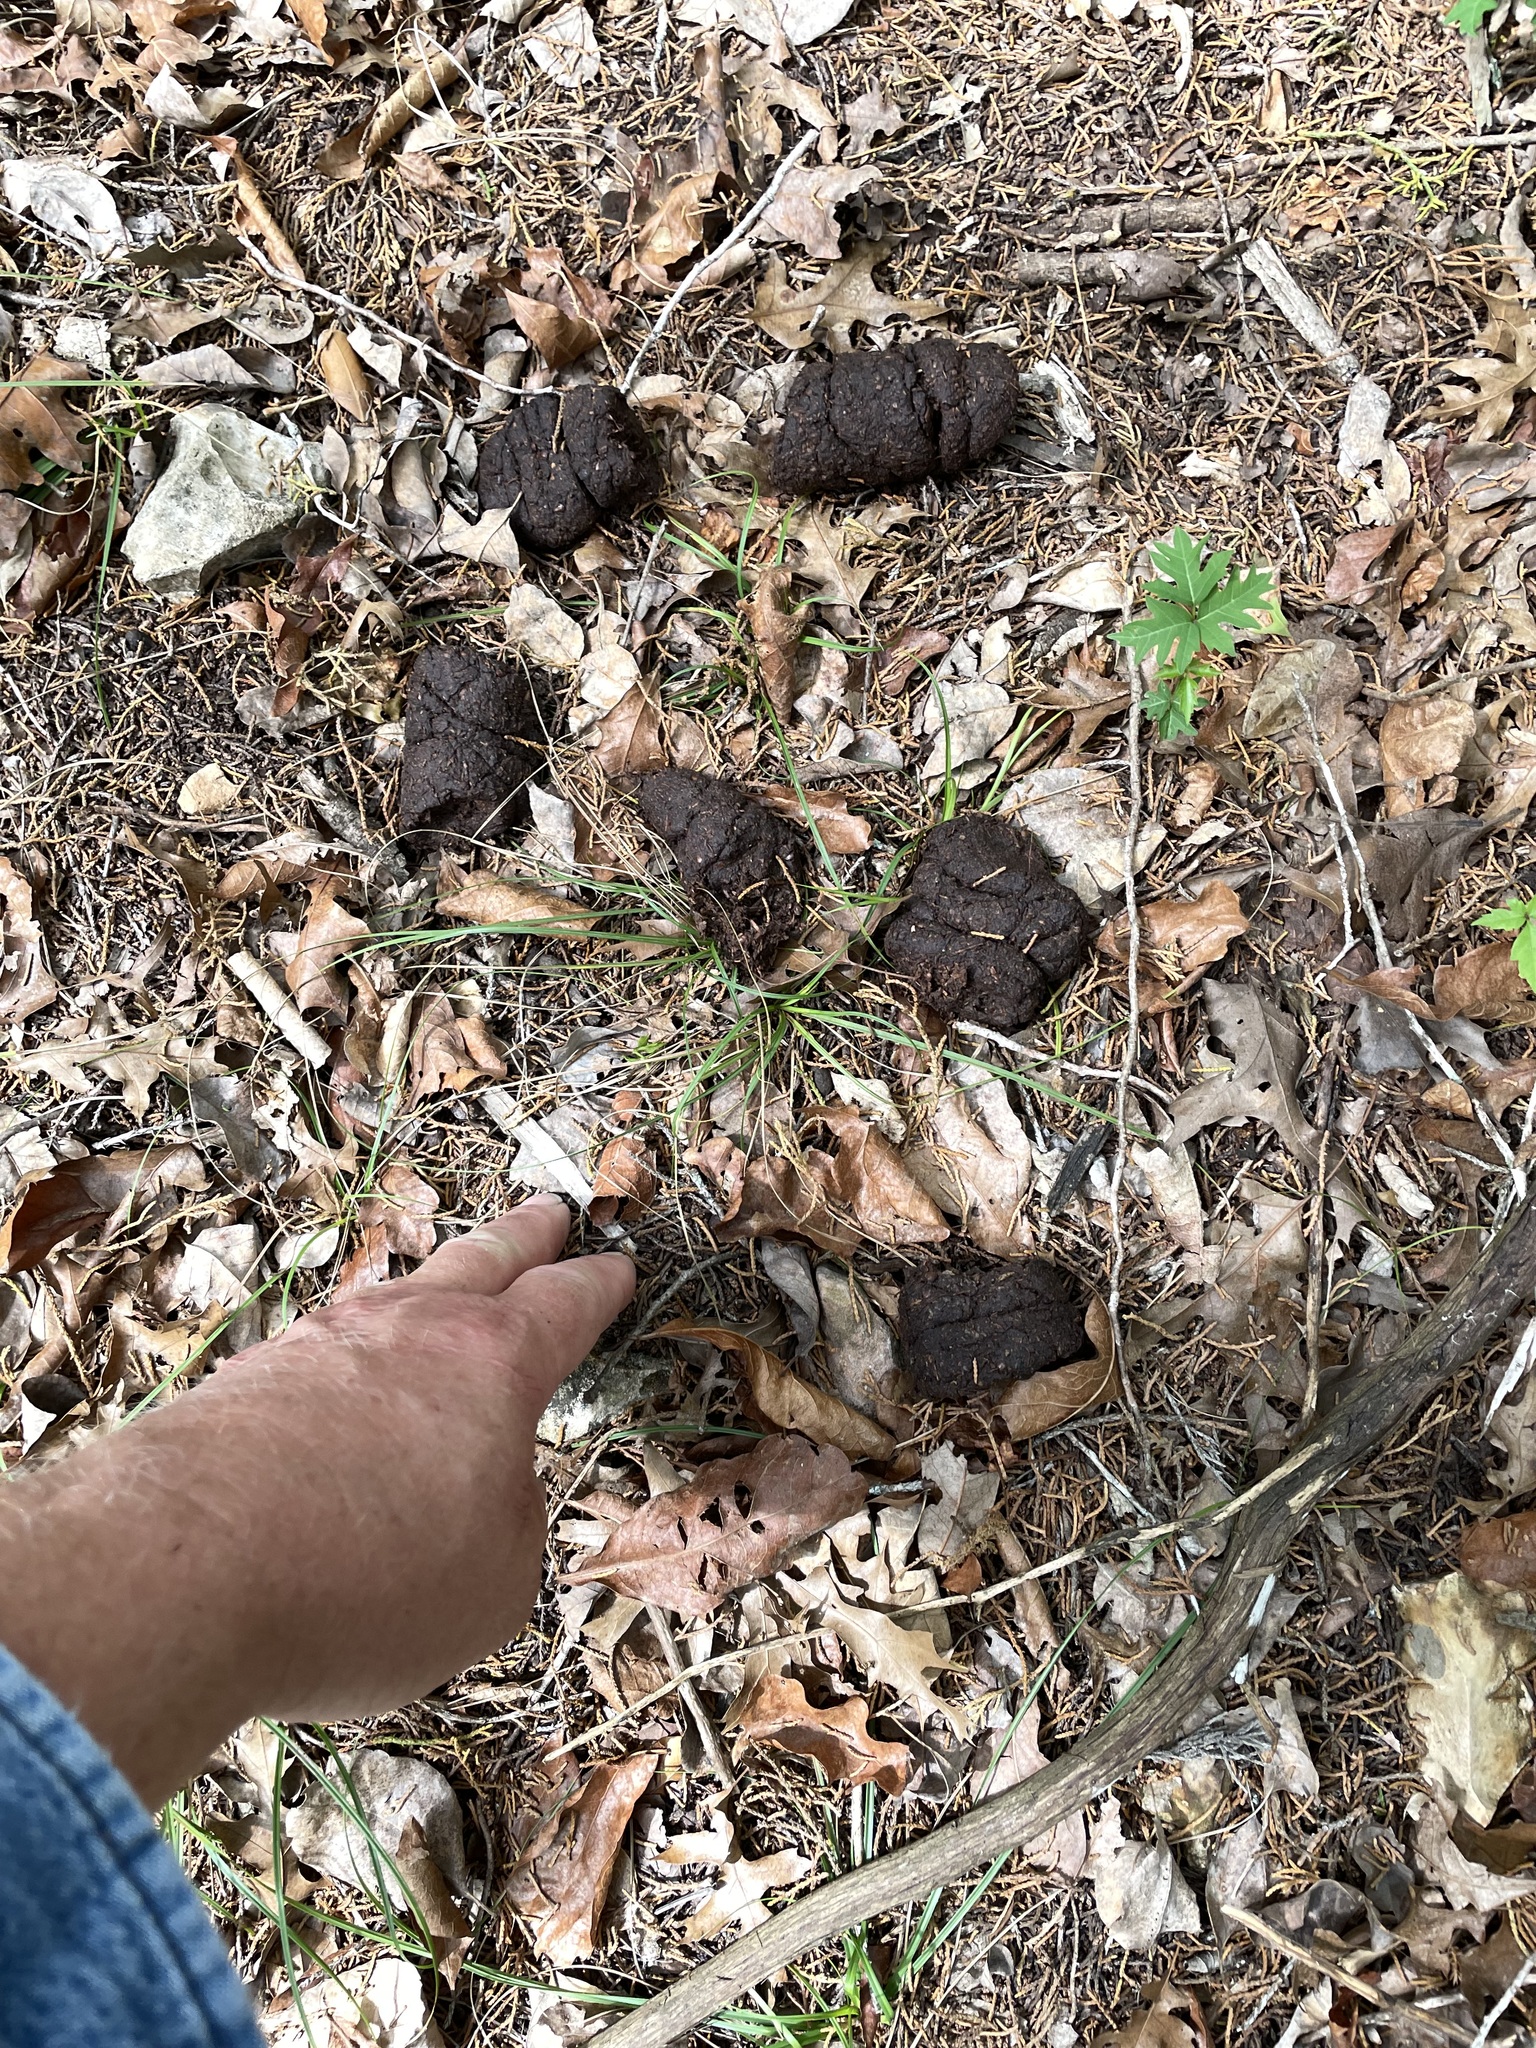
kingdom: Animalia
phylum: Chordata
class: Mammalia
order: Artiodactyla
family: Suidae
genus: Sus
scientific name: Sus scrofa
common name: Wild boar
